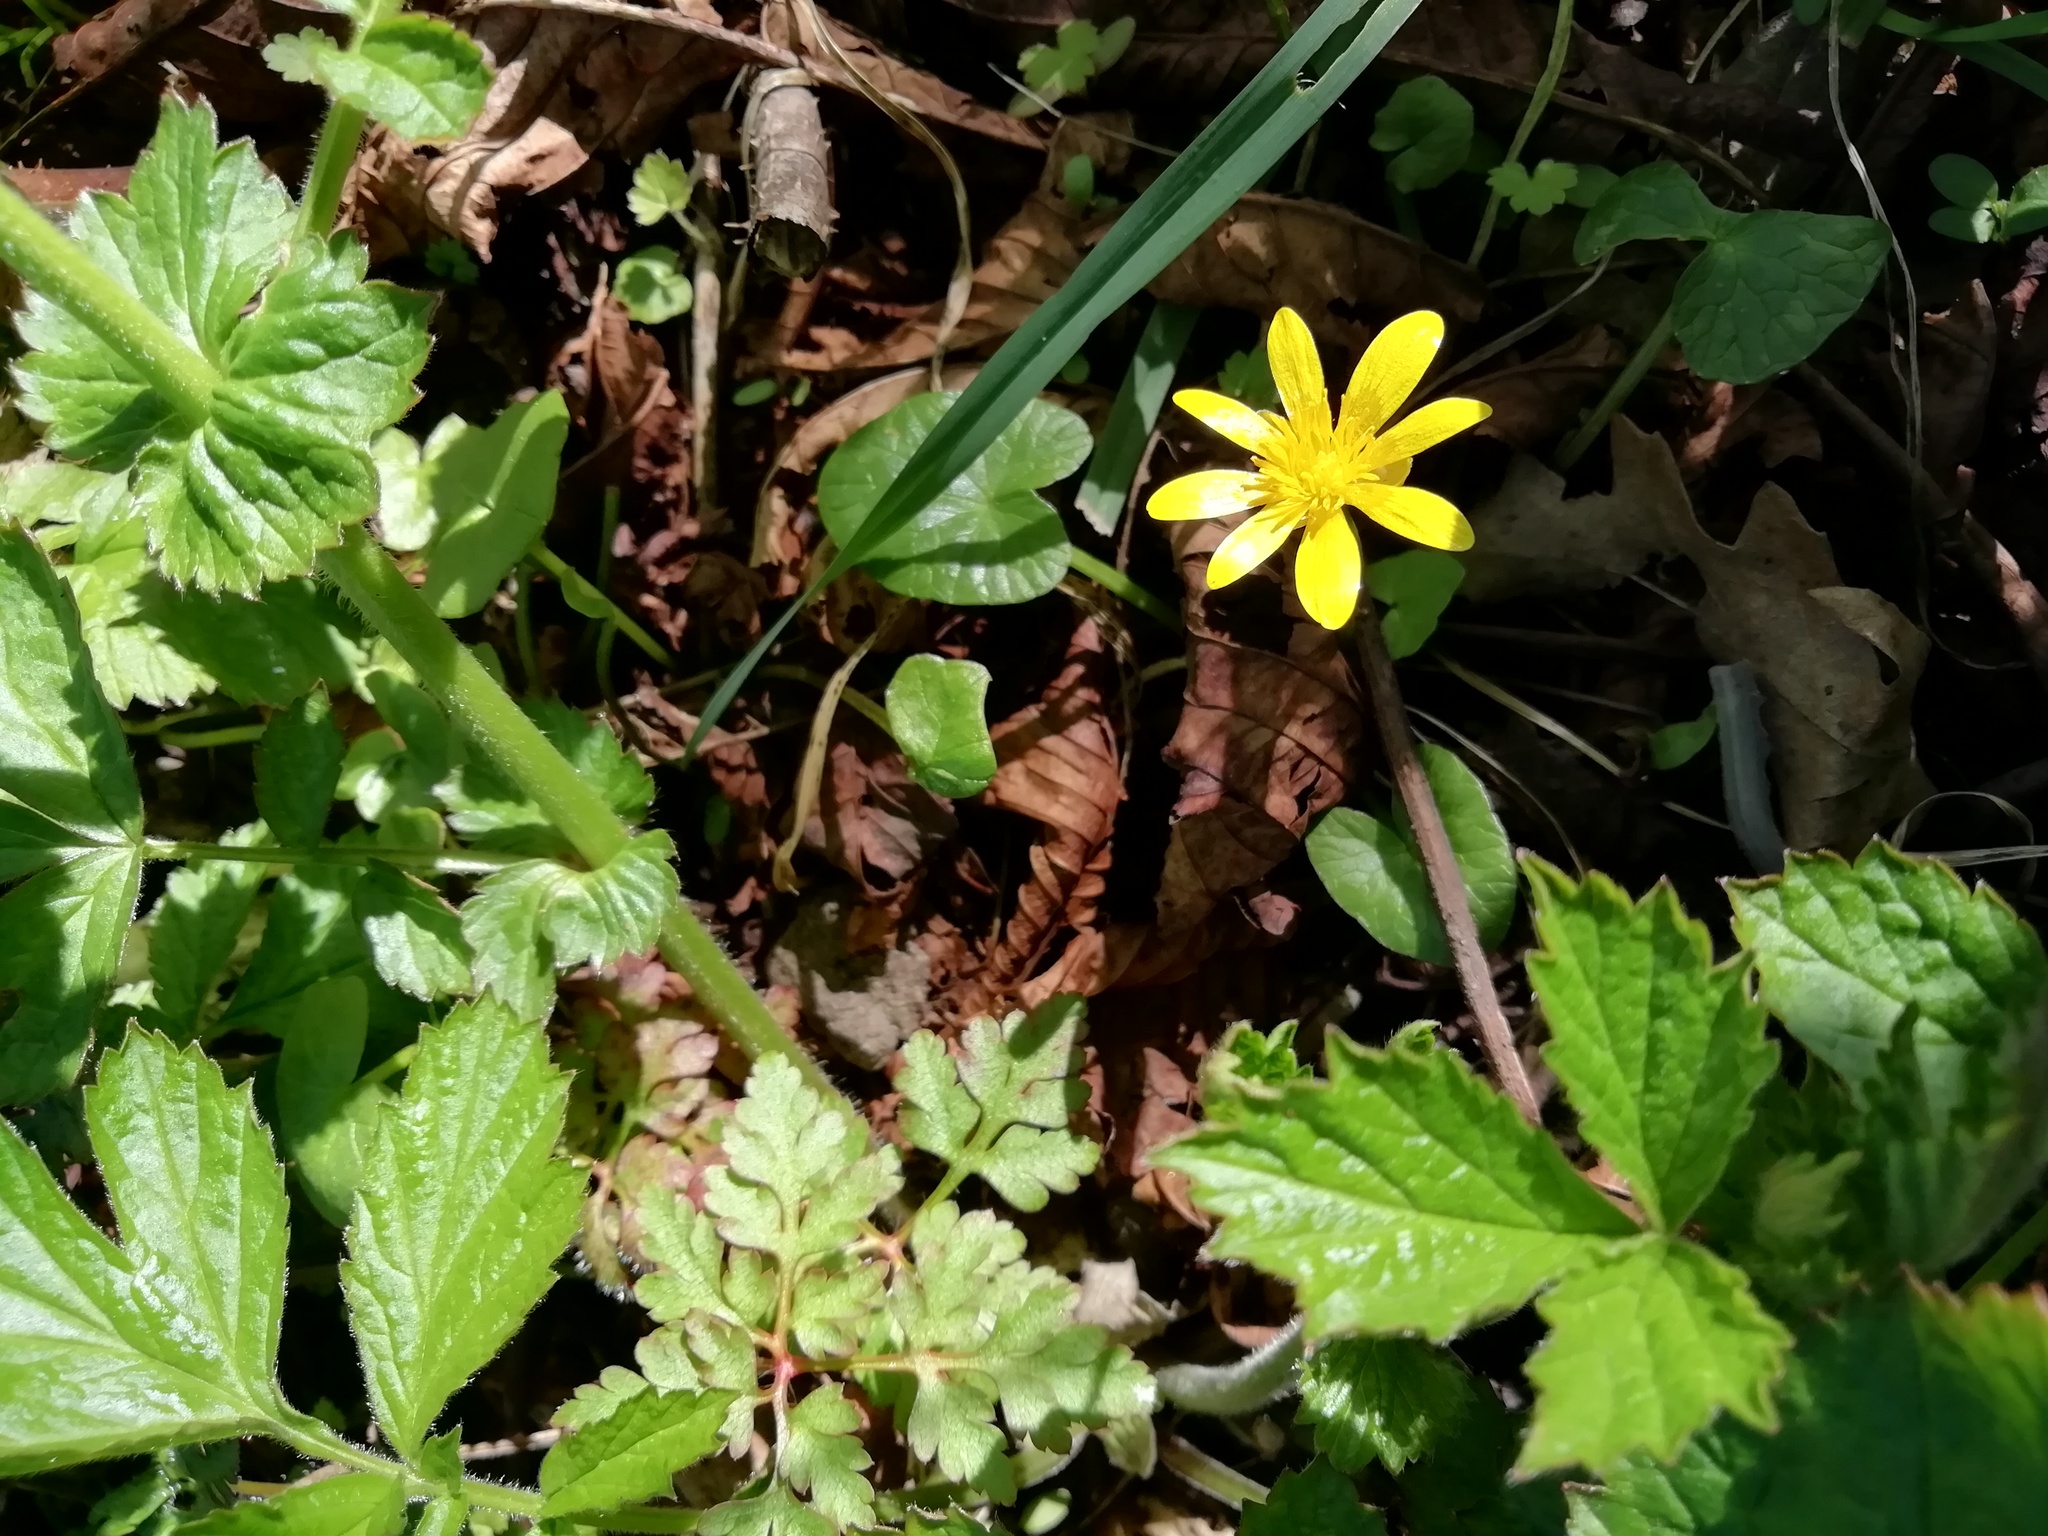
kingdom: Plantae
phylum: Tracheophyta
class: Magnoliopsida
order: Ranunculales
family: Ranunculaceae
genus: Ficaria
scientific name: Ficaria verna
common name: Lesser celandine
